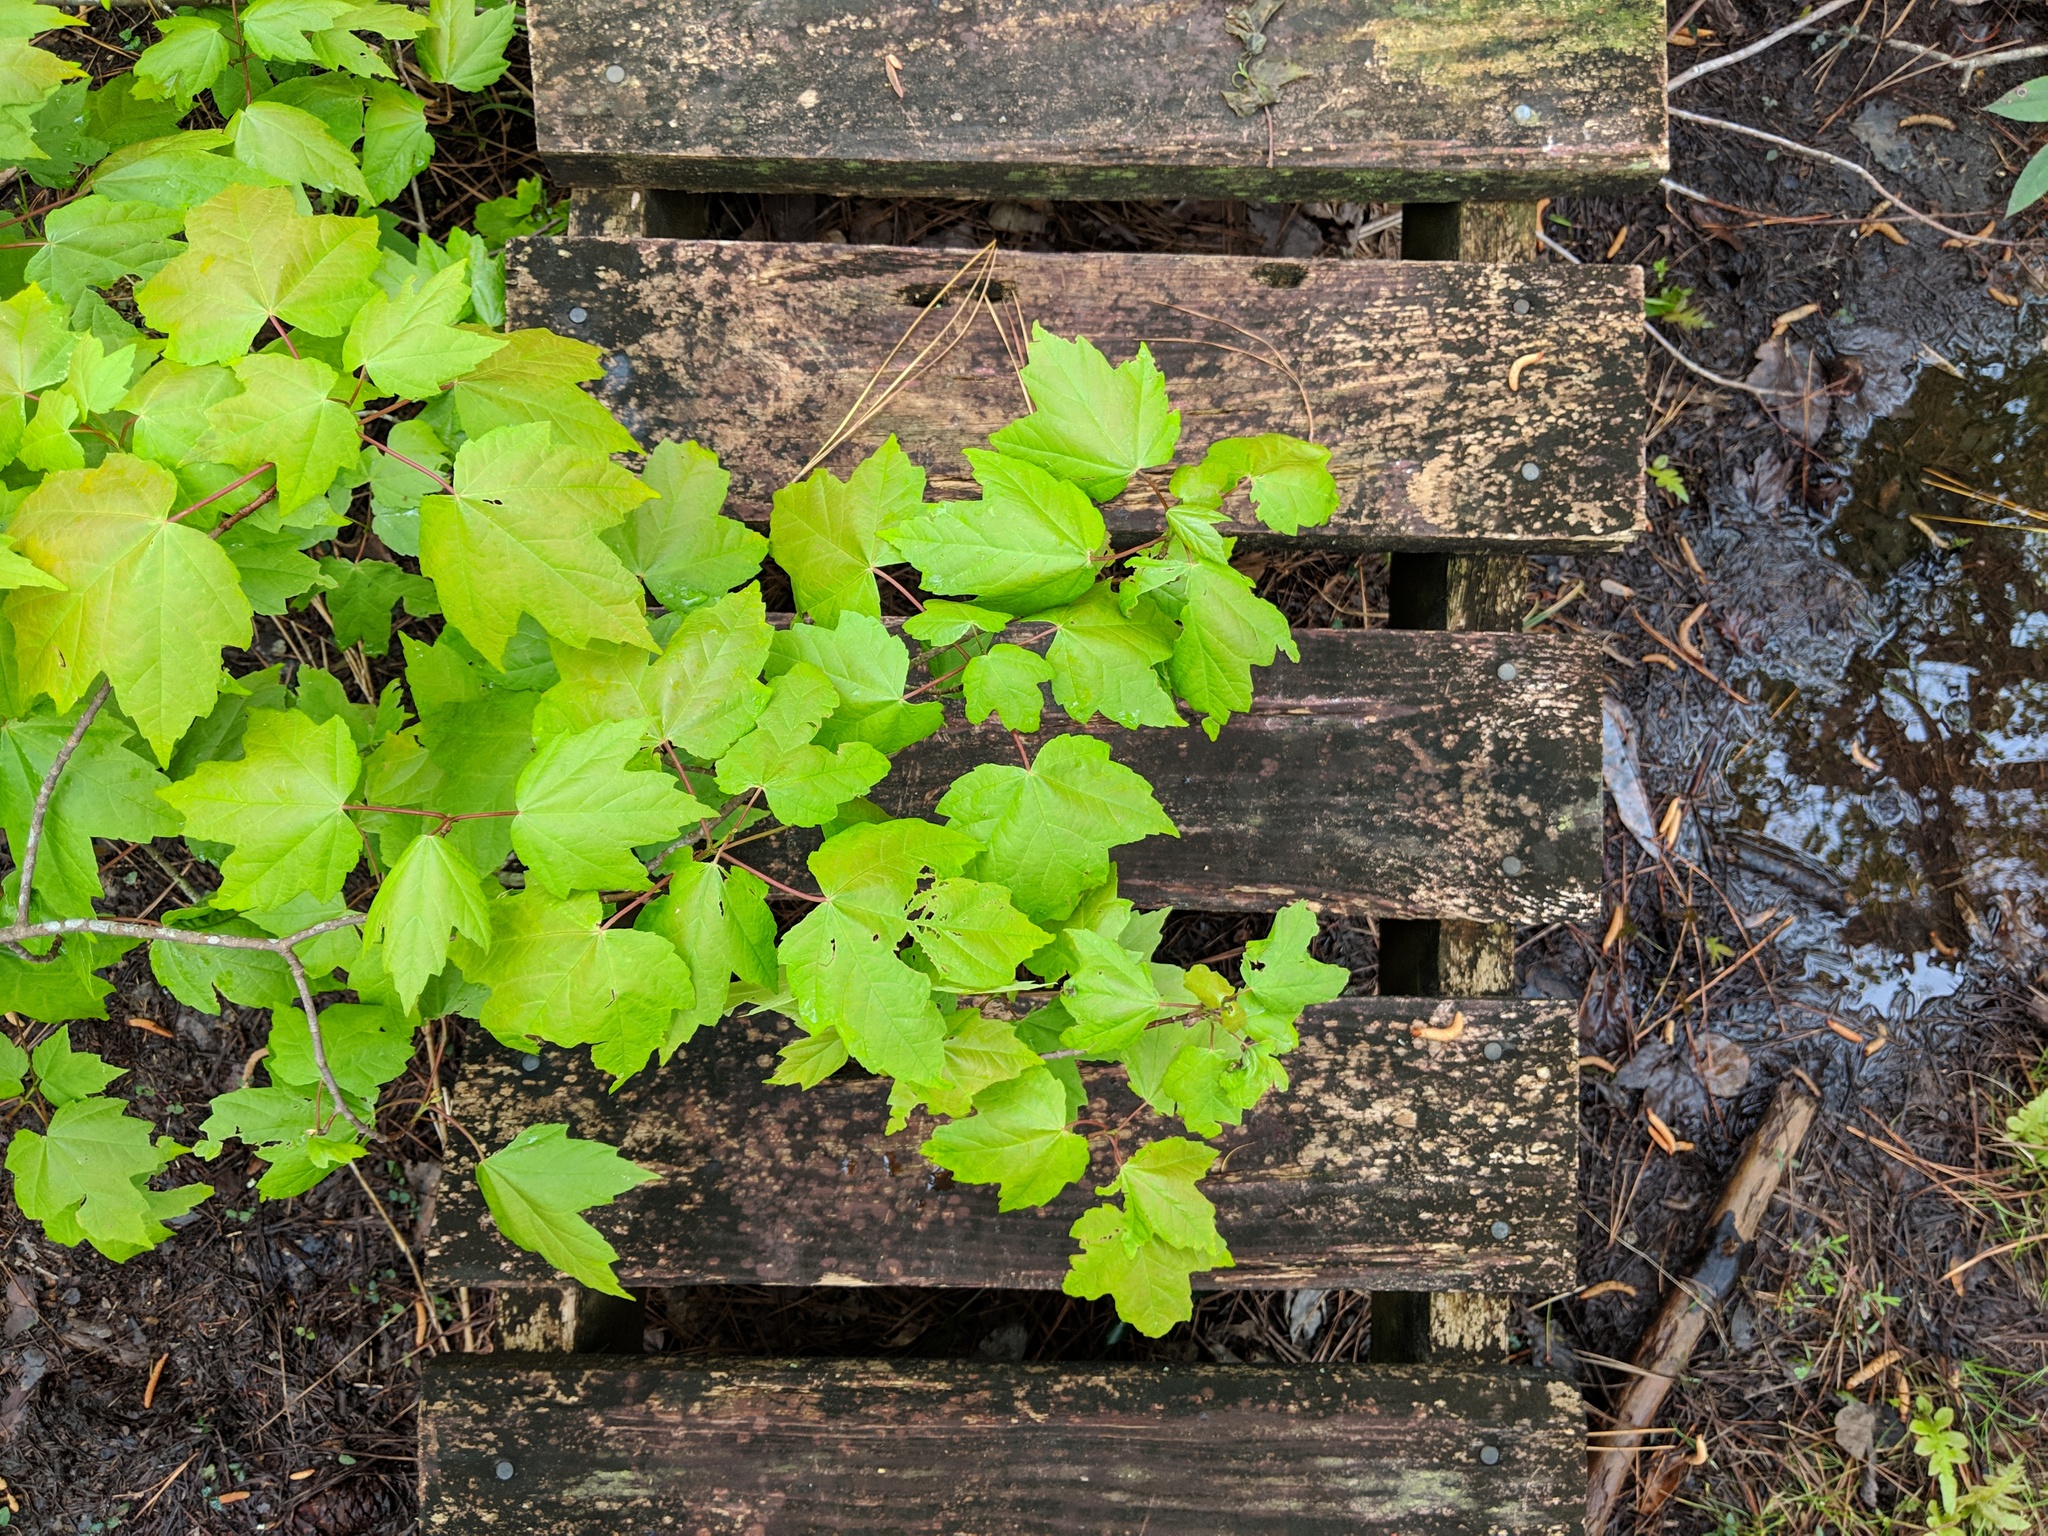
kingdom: Plantae
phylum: Tracheophyta
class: Magnoliopsida
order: Sapindales
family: Sapindaceae
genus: Acer
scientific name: Acer rubrum
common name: Red maple
